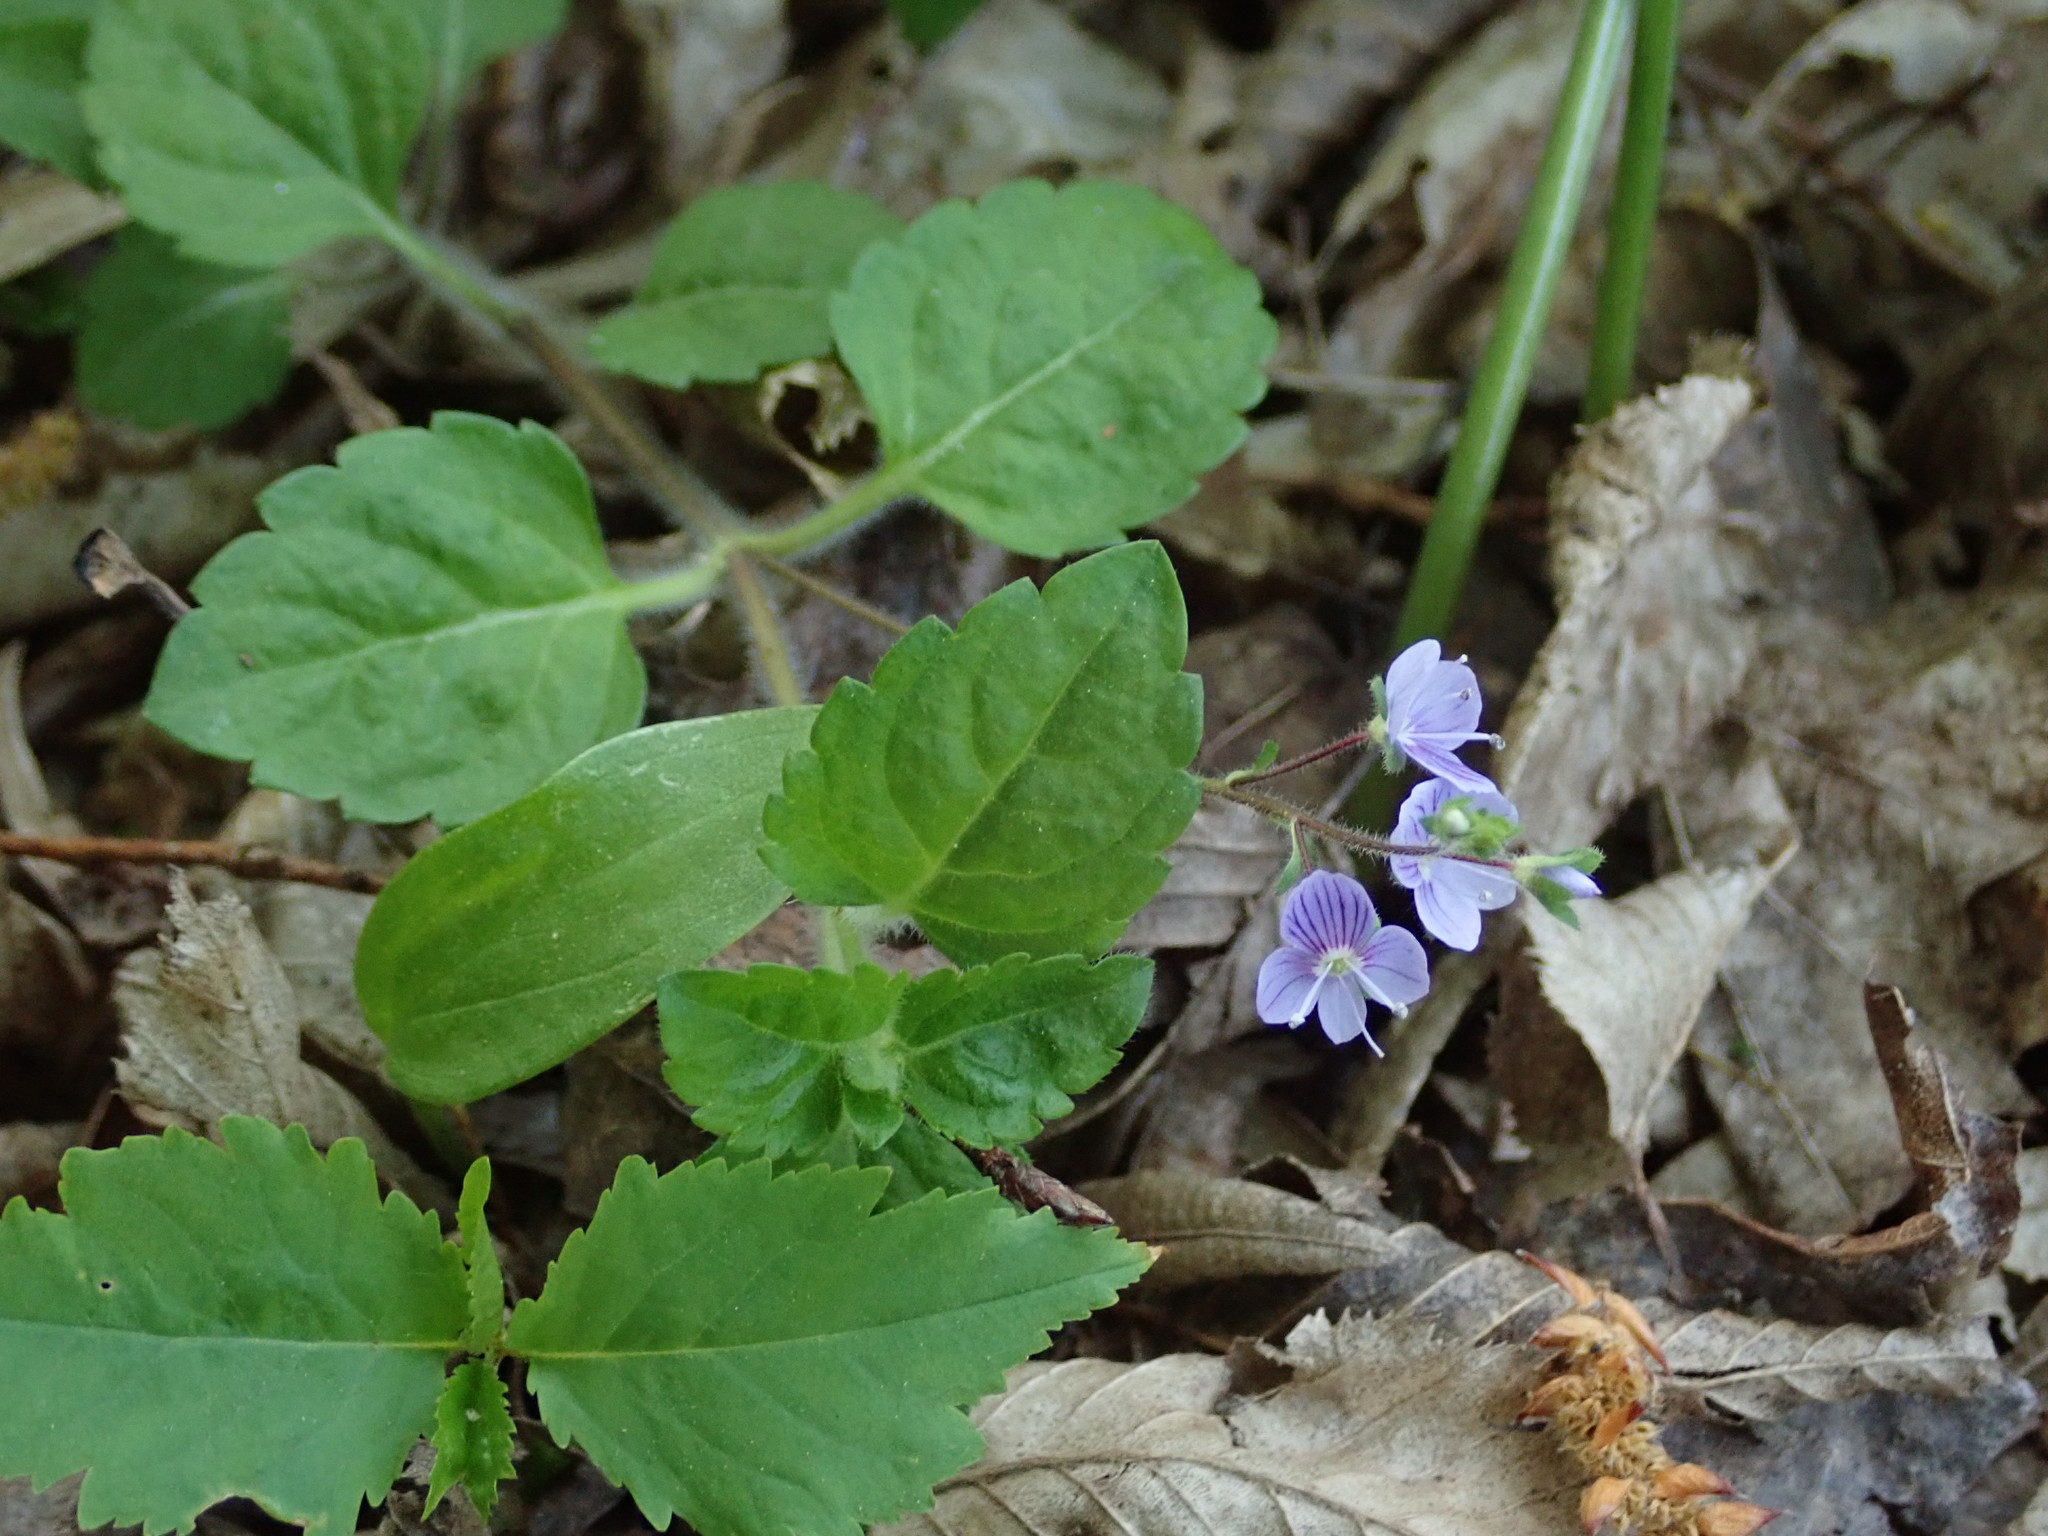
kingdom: Plantae
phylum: Tracheophyta
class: Magnoliopsida
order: Lamiales
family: Plantaginaceae
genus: Veronica
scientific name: Veronica montana
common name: Wood speedwell
